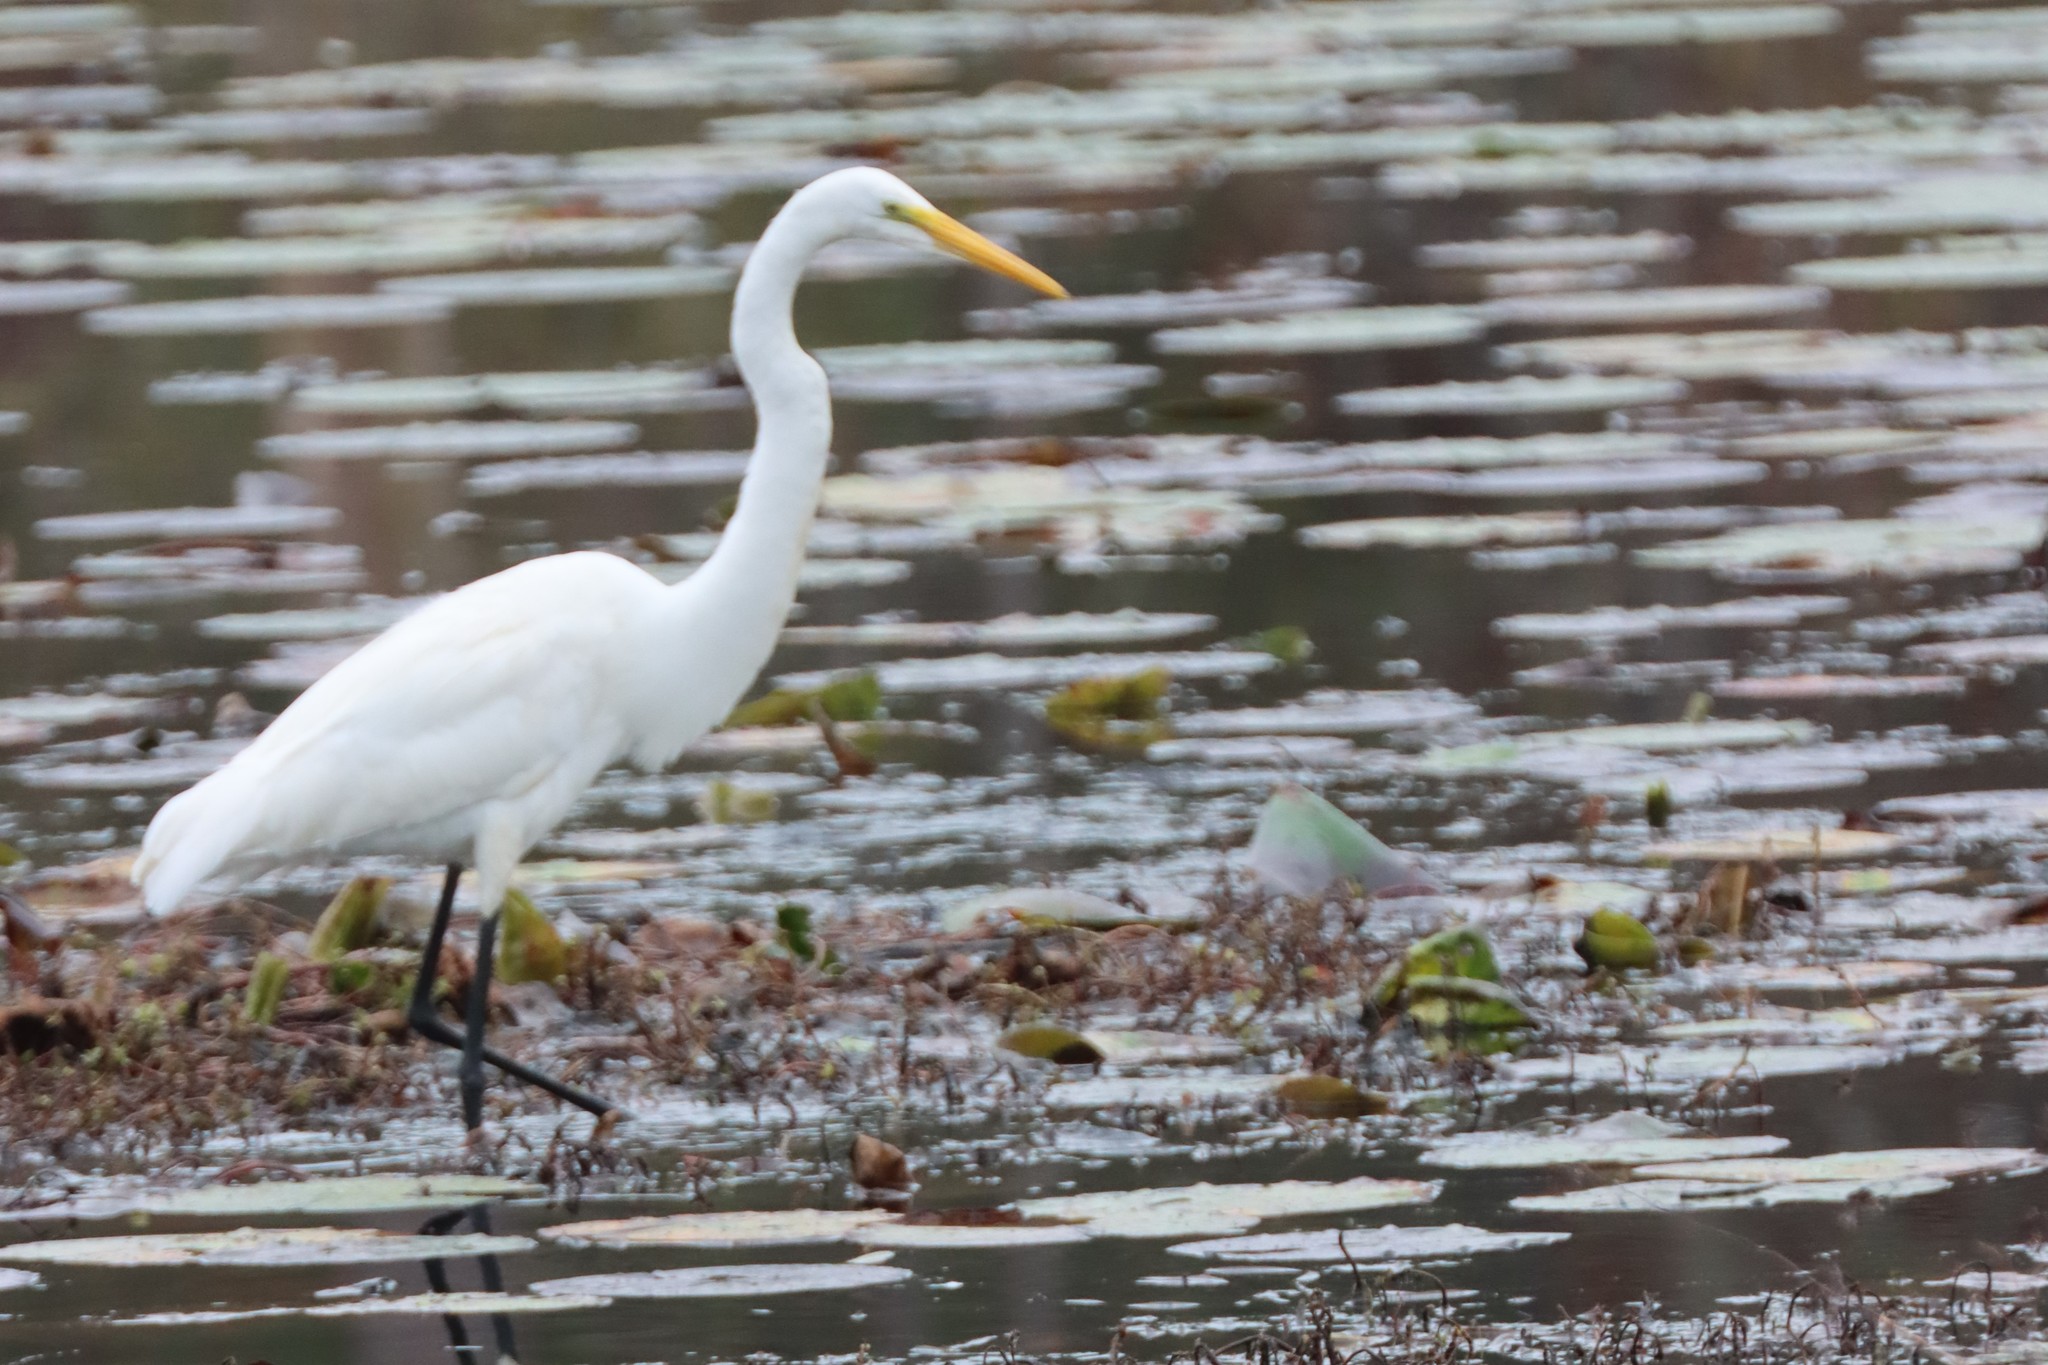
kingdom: Animalia
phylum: Chordata
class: Aves
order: Pelecaniformes
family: Ardeidae
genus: Ardea
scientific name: Ardea alba
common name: Great egret
